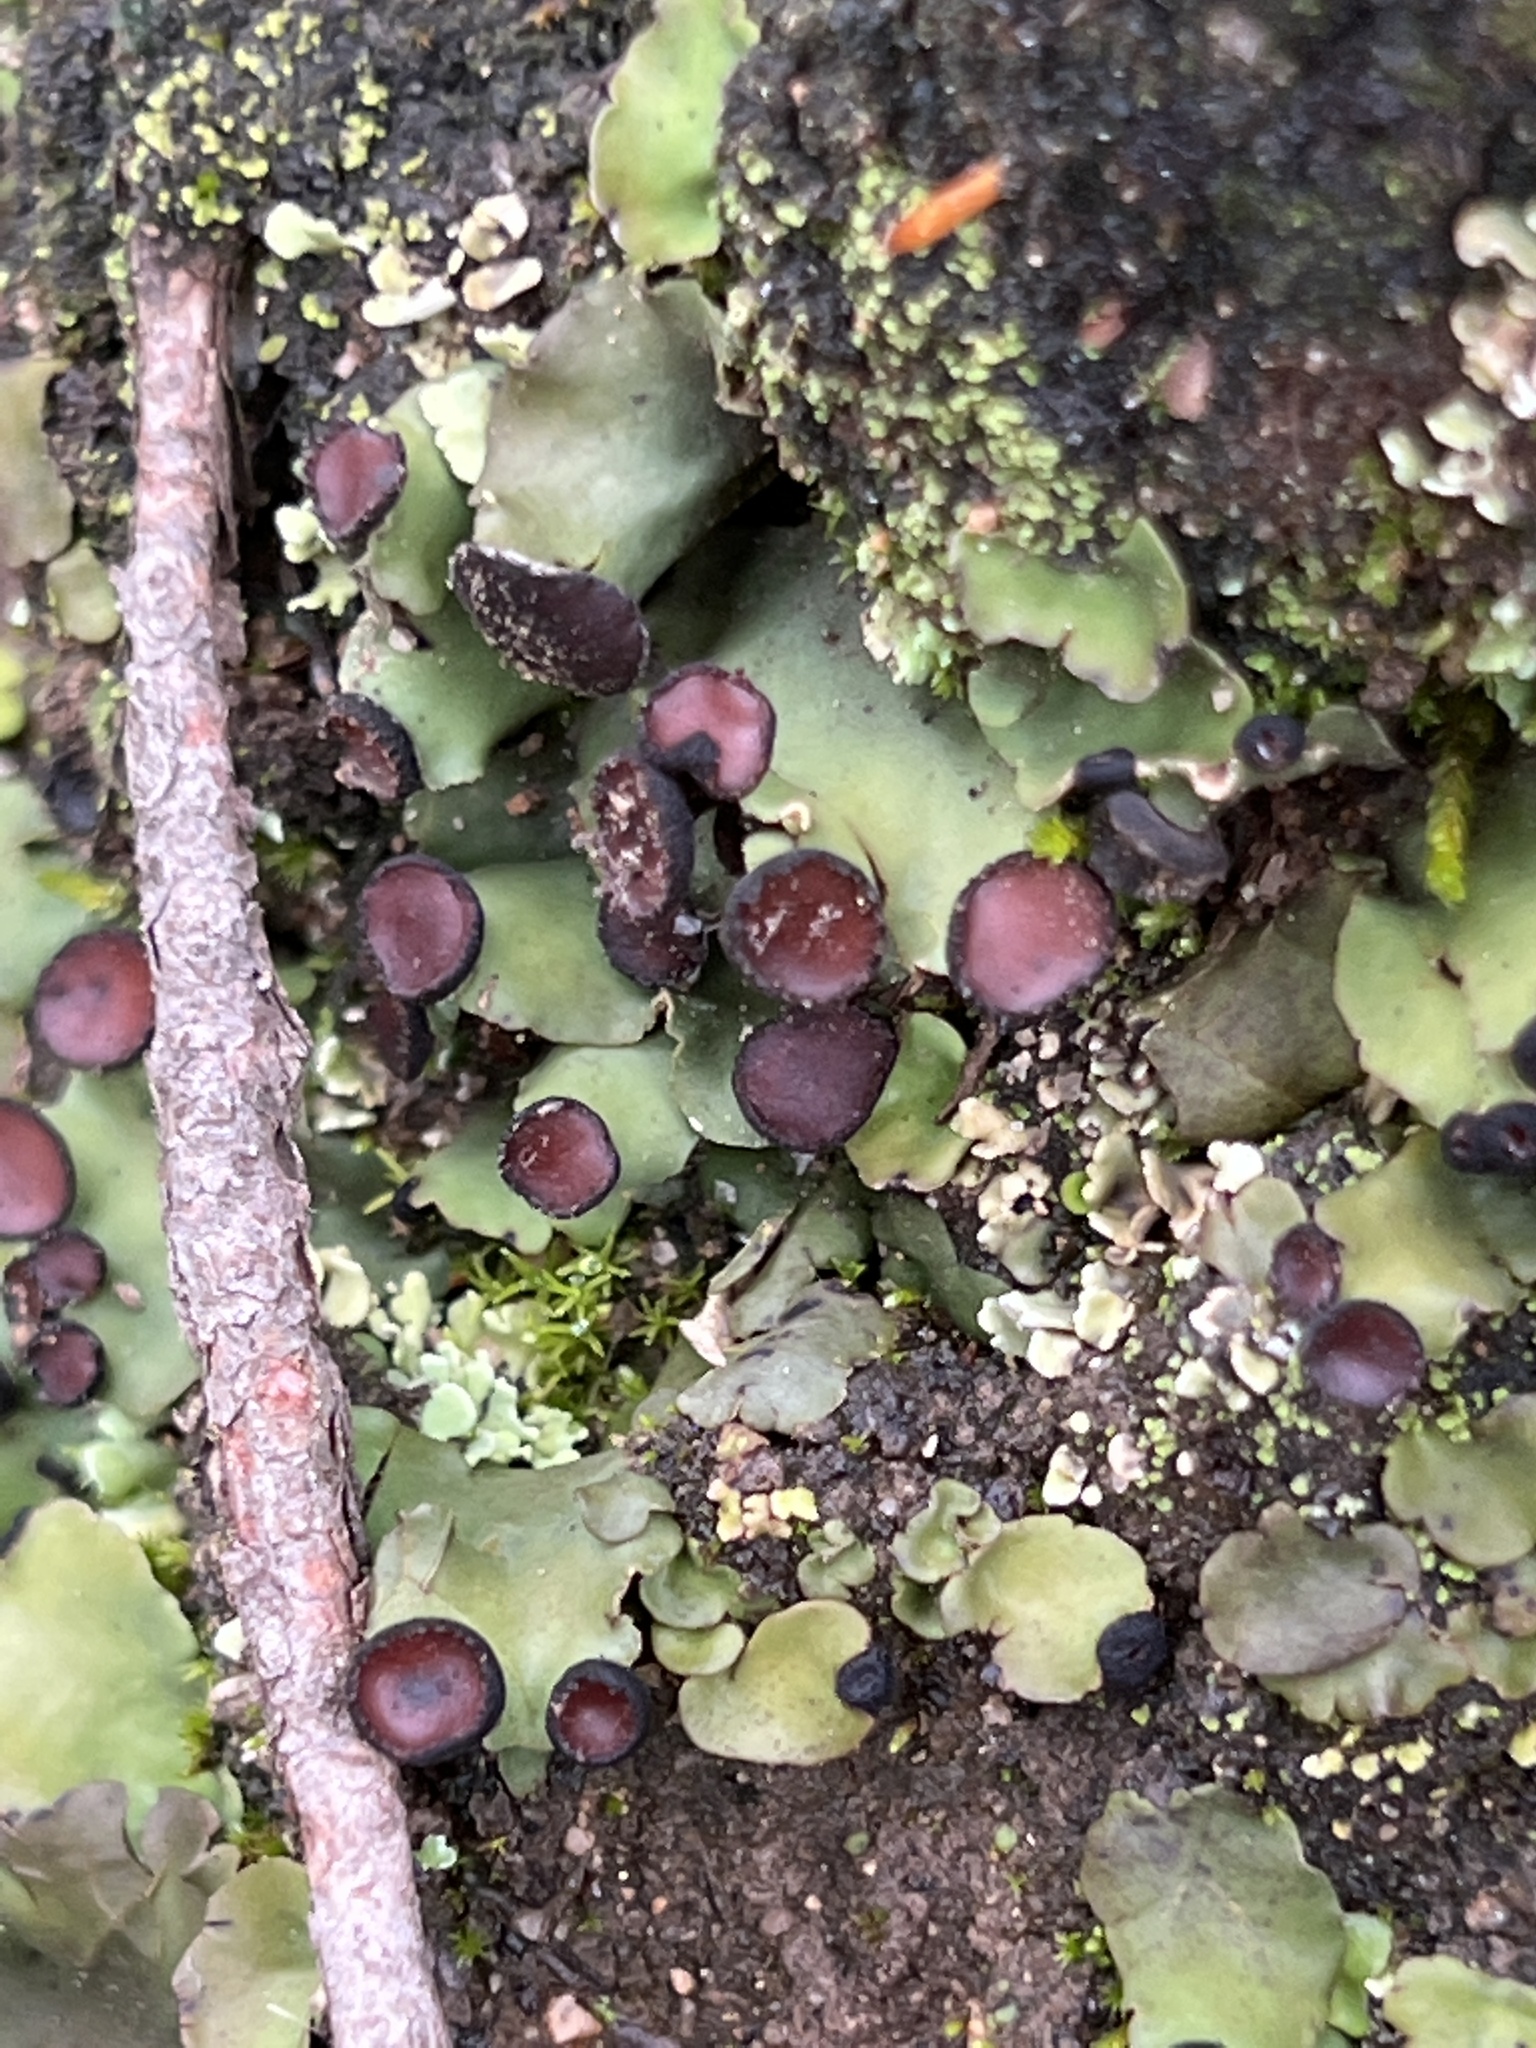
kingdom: Fungi
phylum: Ascomycota
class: Lecanoromycetes
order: Peltigerales
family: Peltigeraceae
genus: Peltigera
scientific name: Peltigera venosa
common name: Pixie gowns lichen
